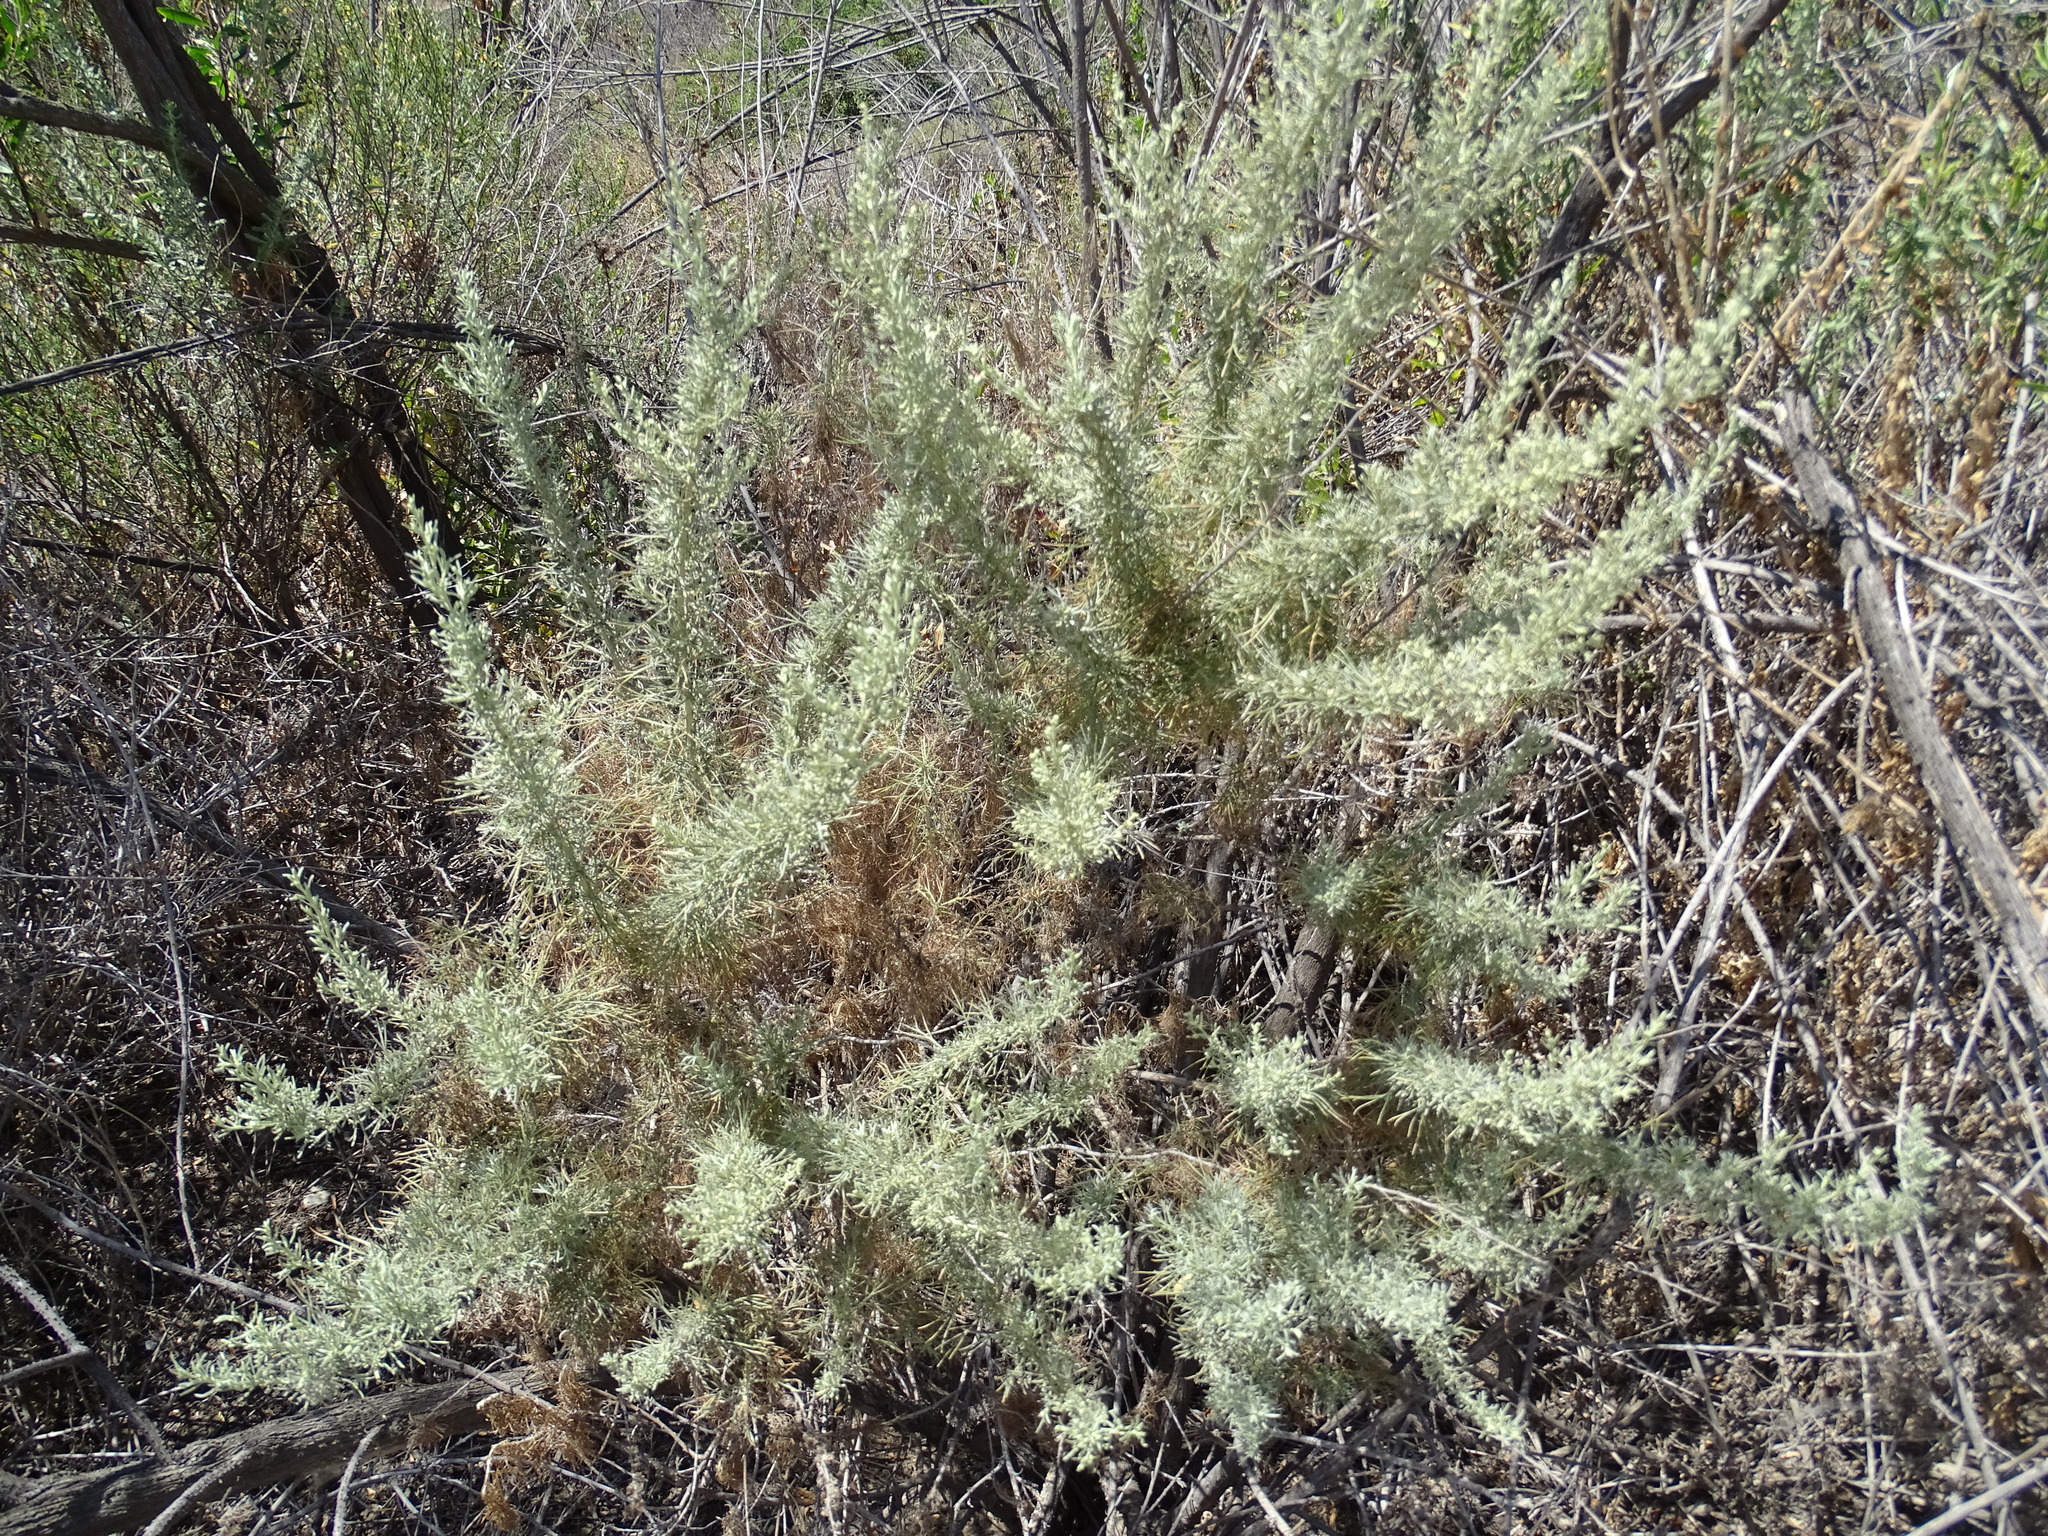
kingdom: Plantae
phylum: Tracheophyta
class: Magnoliopsida
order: Asterales
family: Asteraceae
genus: Artemisia
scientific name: Artemisia californica
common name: California sagebrush
